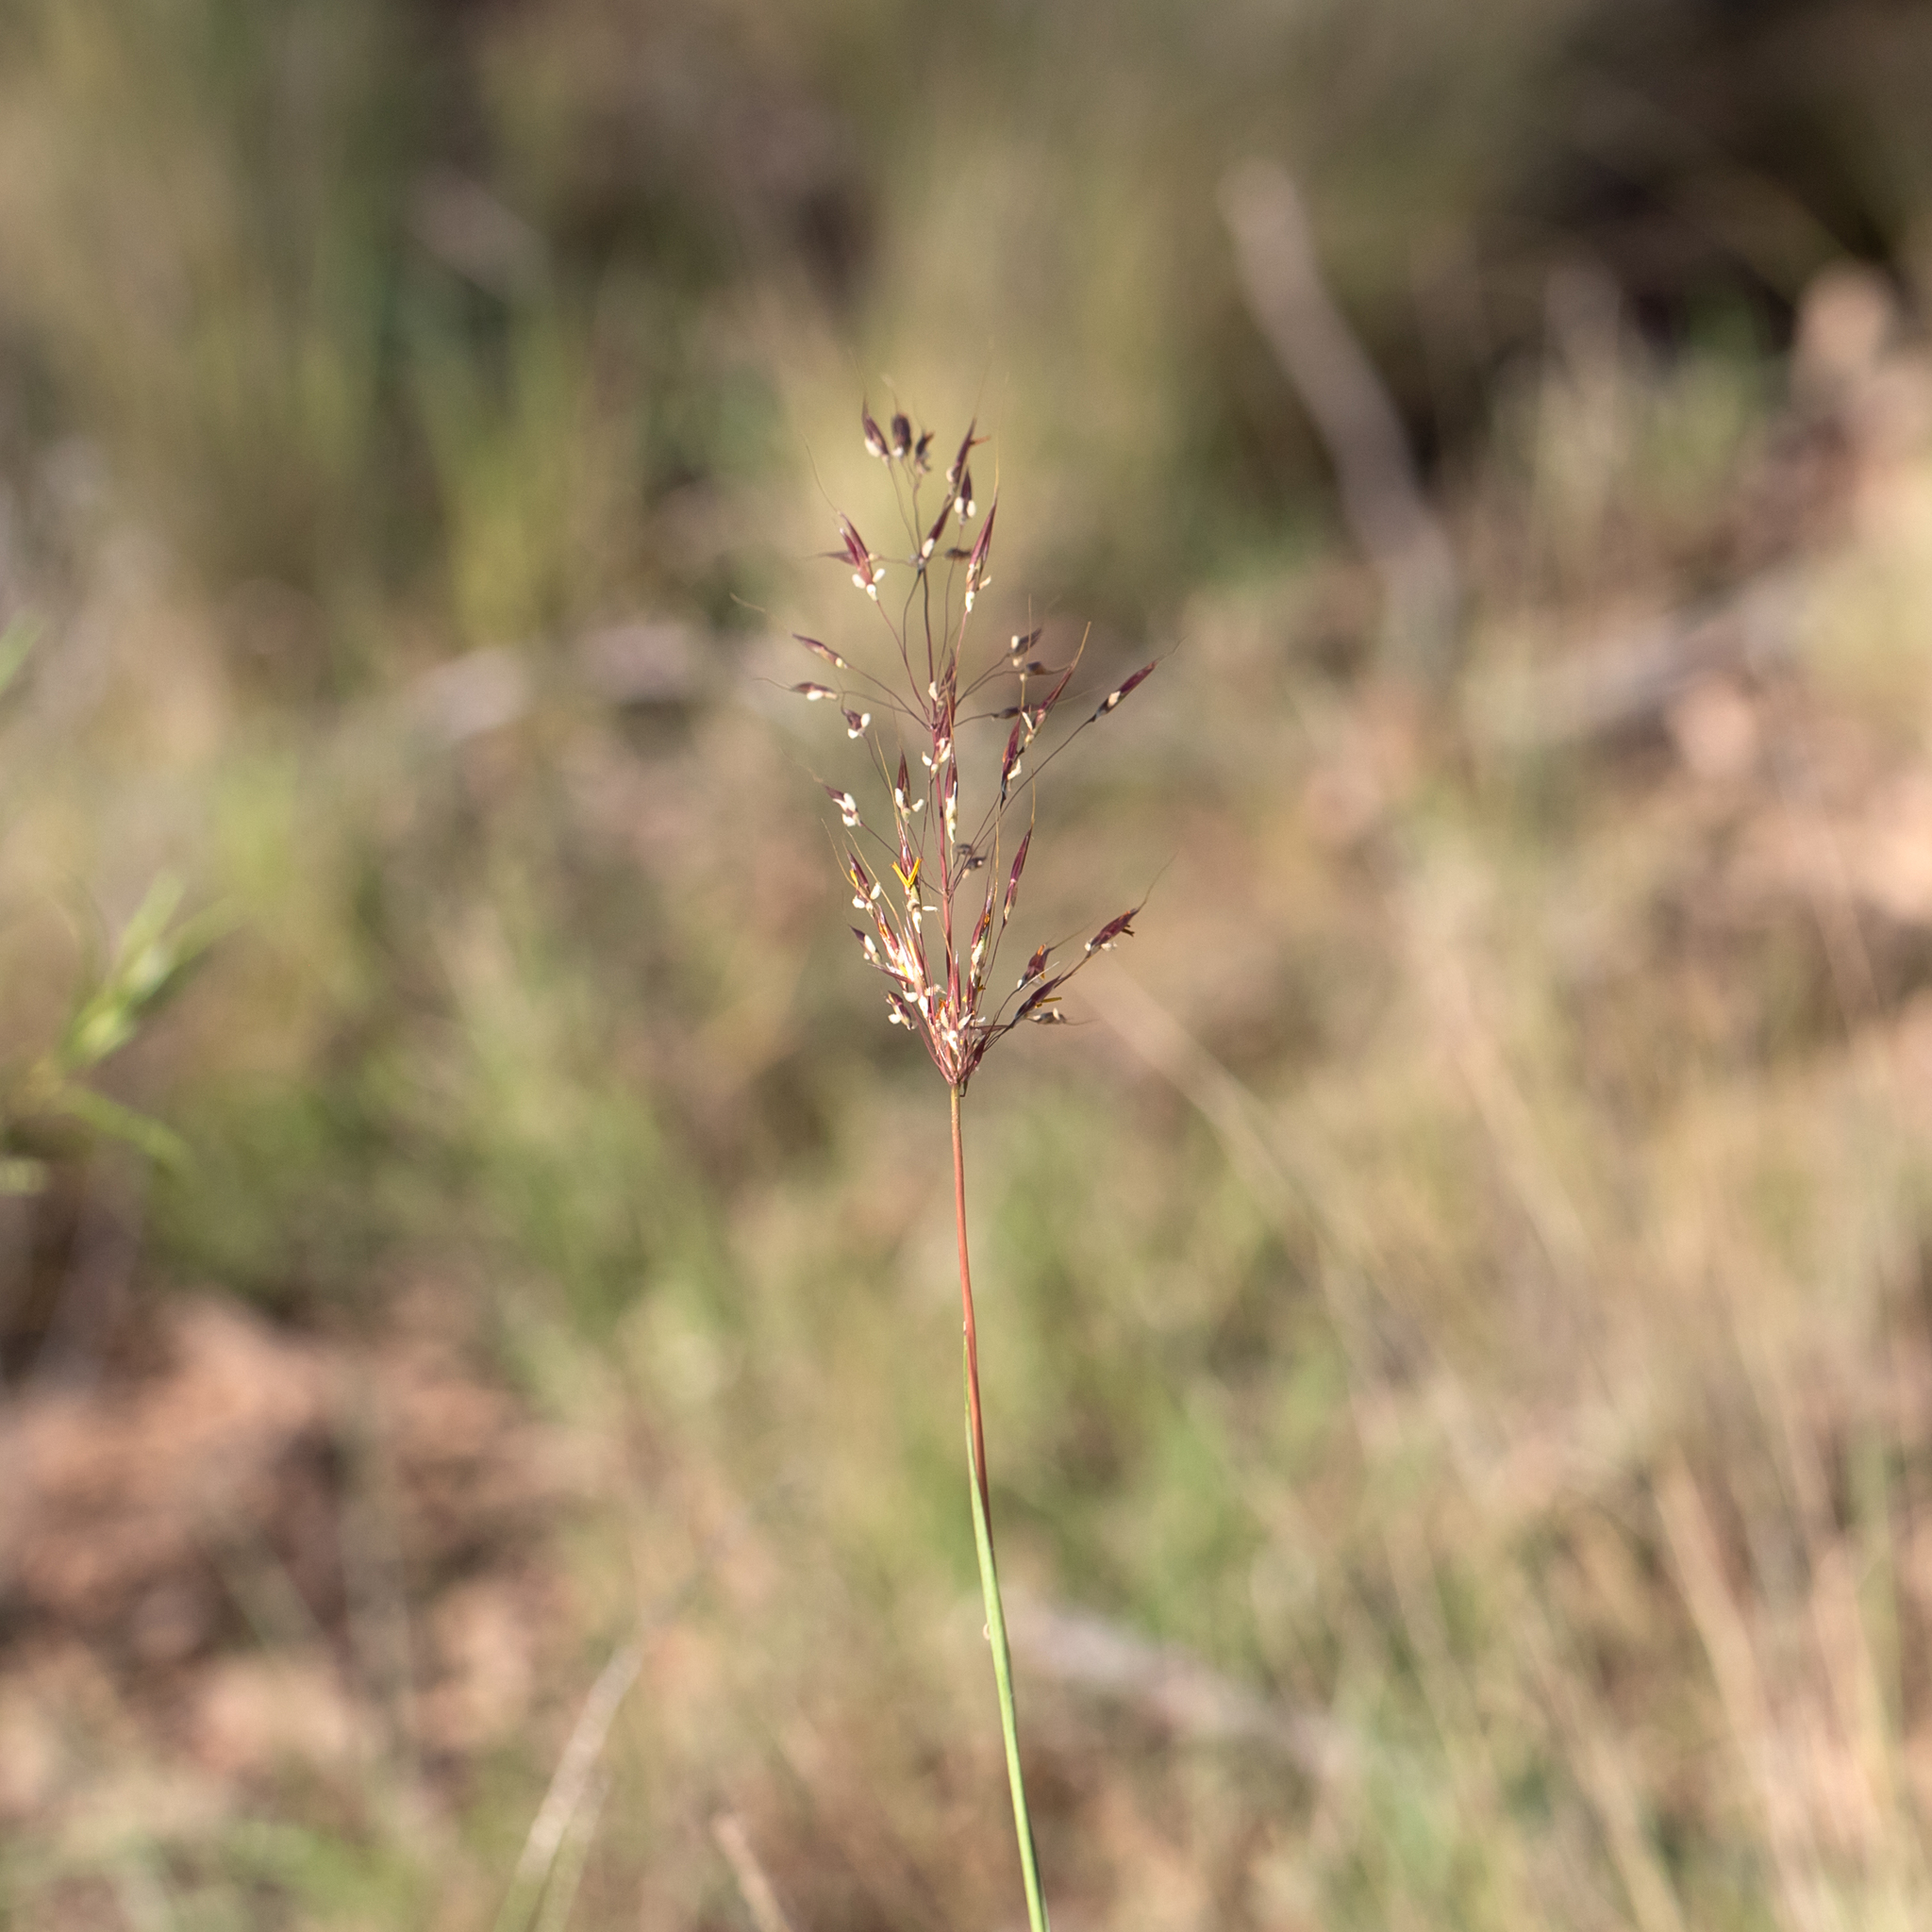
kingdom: Plantae
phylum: Tracheophyta
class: Liliopsida
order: Poales
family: Poaceae
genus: Chrysopogon
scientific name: Chrysopogon fallax
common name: Golden beard grass
